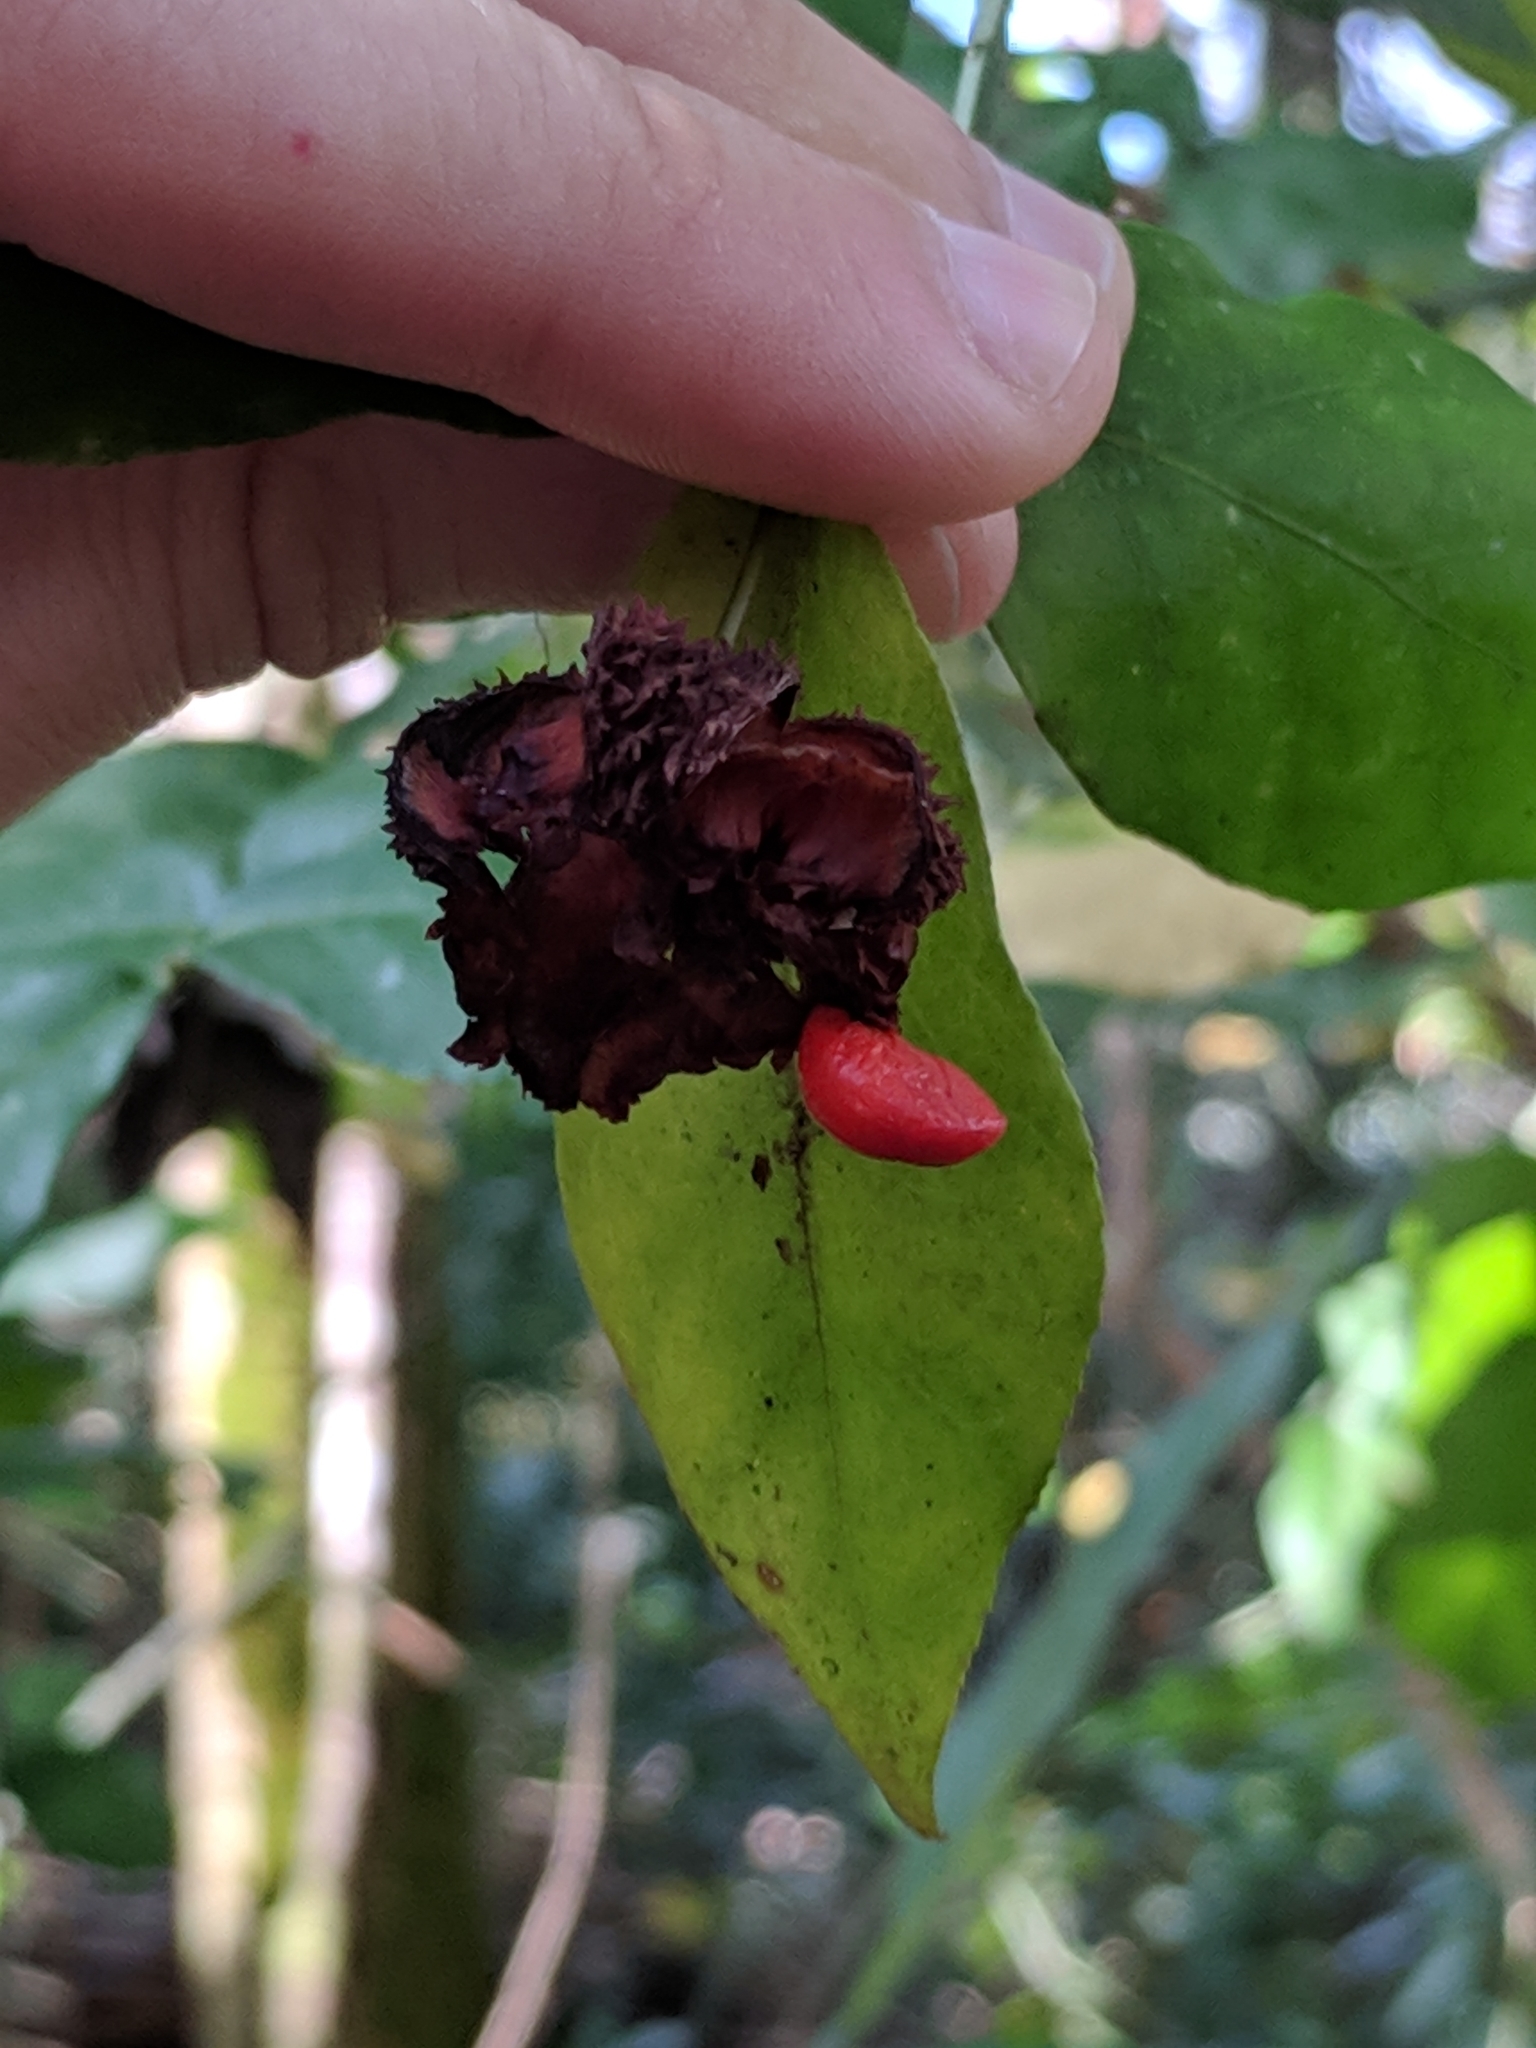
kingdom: Plantae
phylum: Tracheophyta
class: Magnoliopsida
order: Celastrales
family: Celastraceae
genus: Euonymus
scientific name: Euonymus americanus
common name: Bursting-heart
